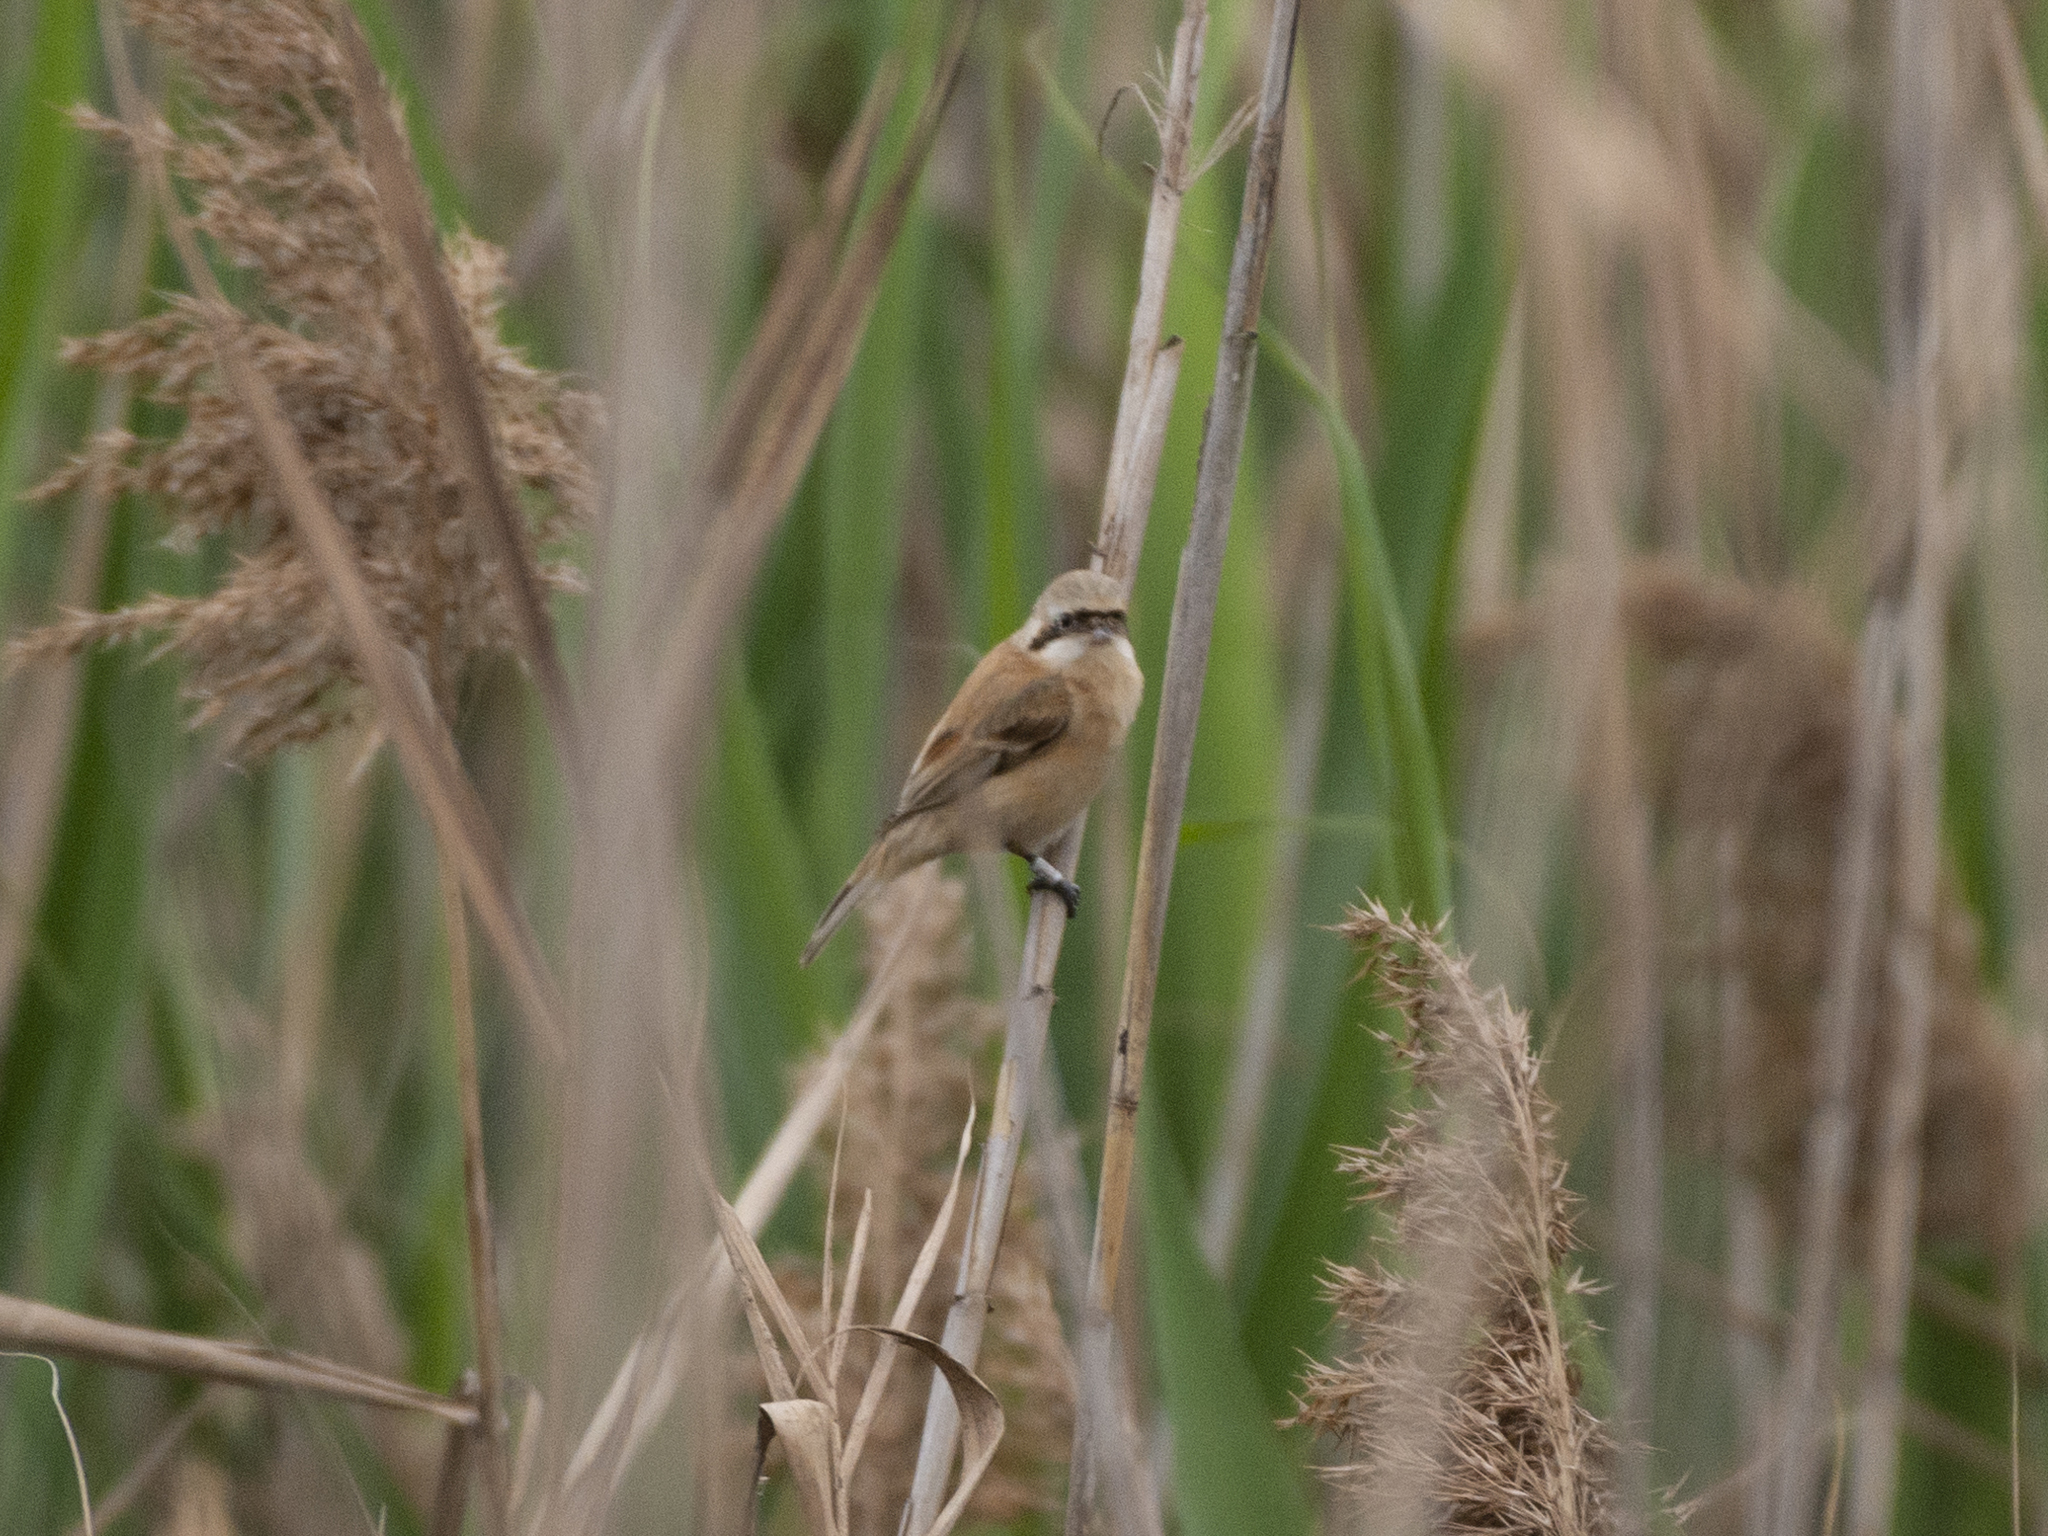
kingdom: Animalia
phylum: Chordata
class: Aves
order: Passeriformes
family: Remizidae
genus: Remiz
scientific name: Remiz consobrinus
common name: Chinese penduline tit
